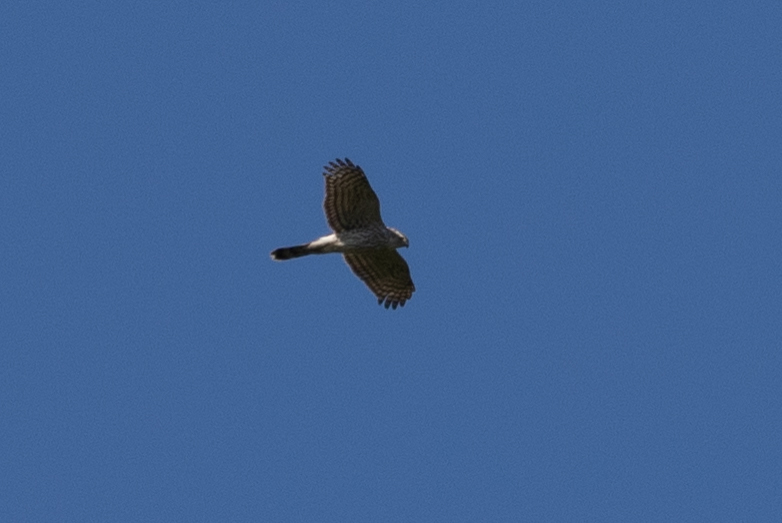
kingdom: Animalia
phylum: Chordata
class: Aves
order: Accipitriformes
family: Accipitridae
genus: Accipiter
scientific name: Accipiter cooperii
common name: Cooper's hawk
